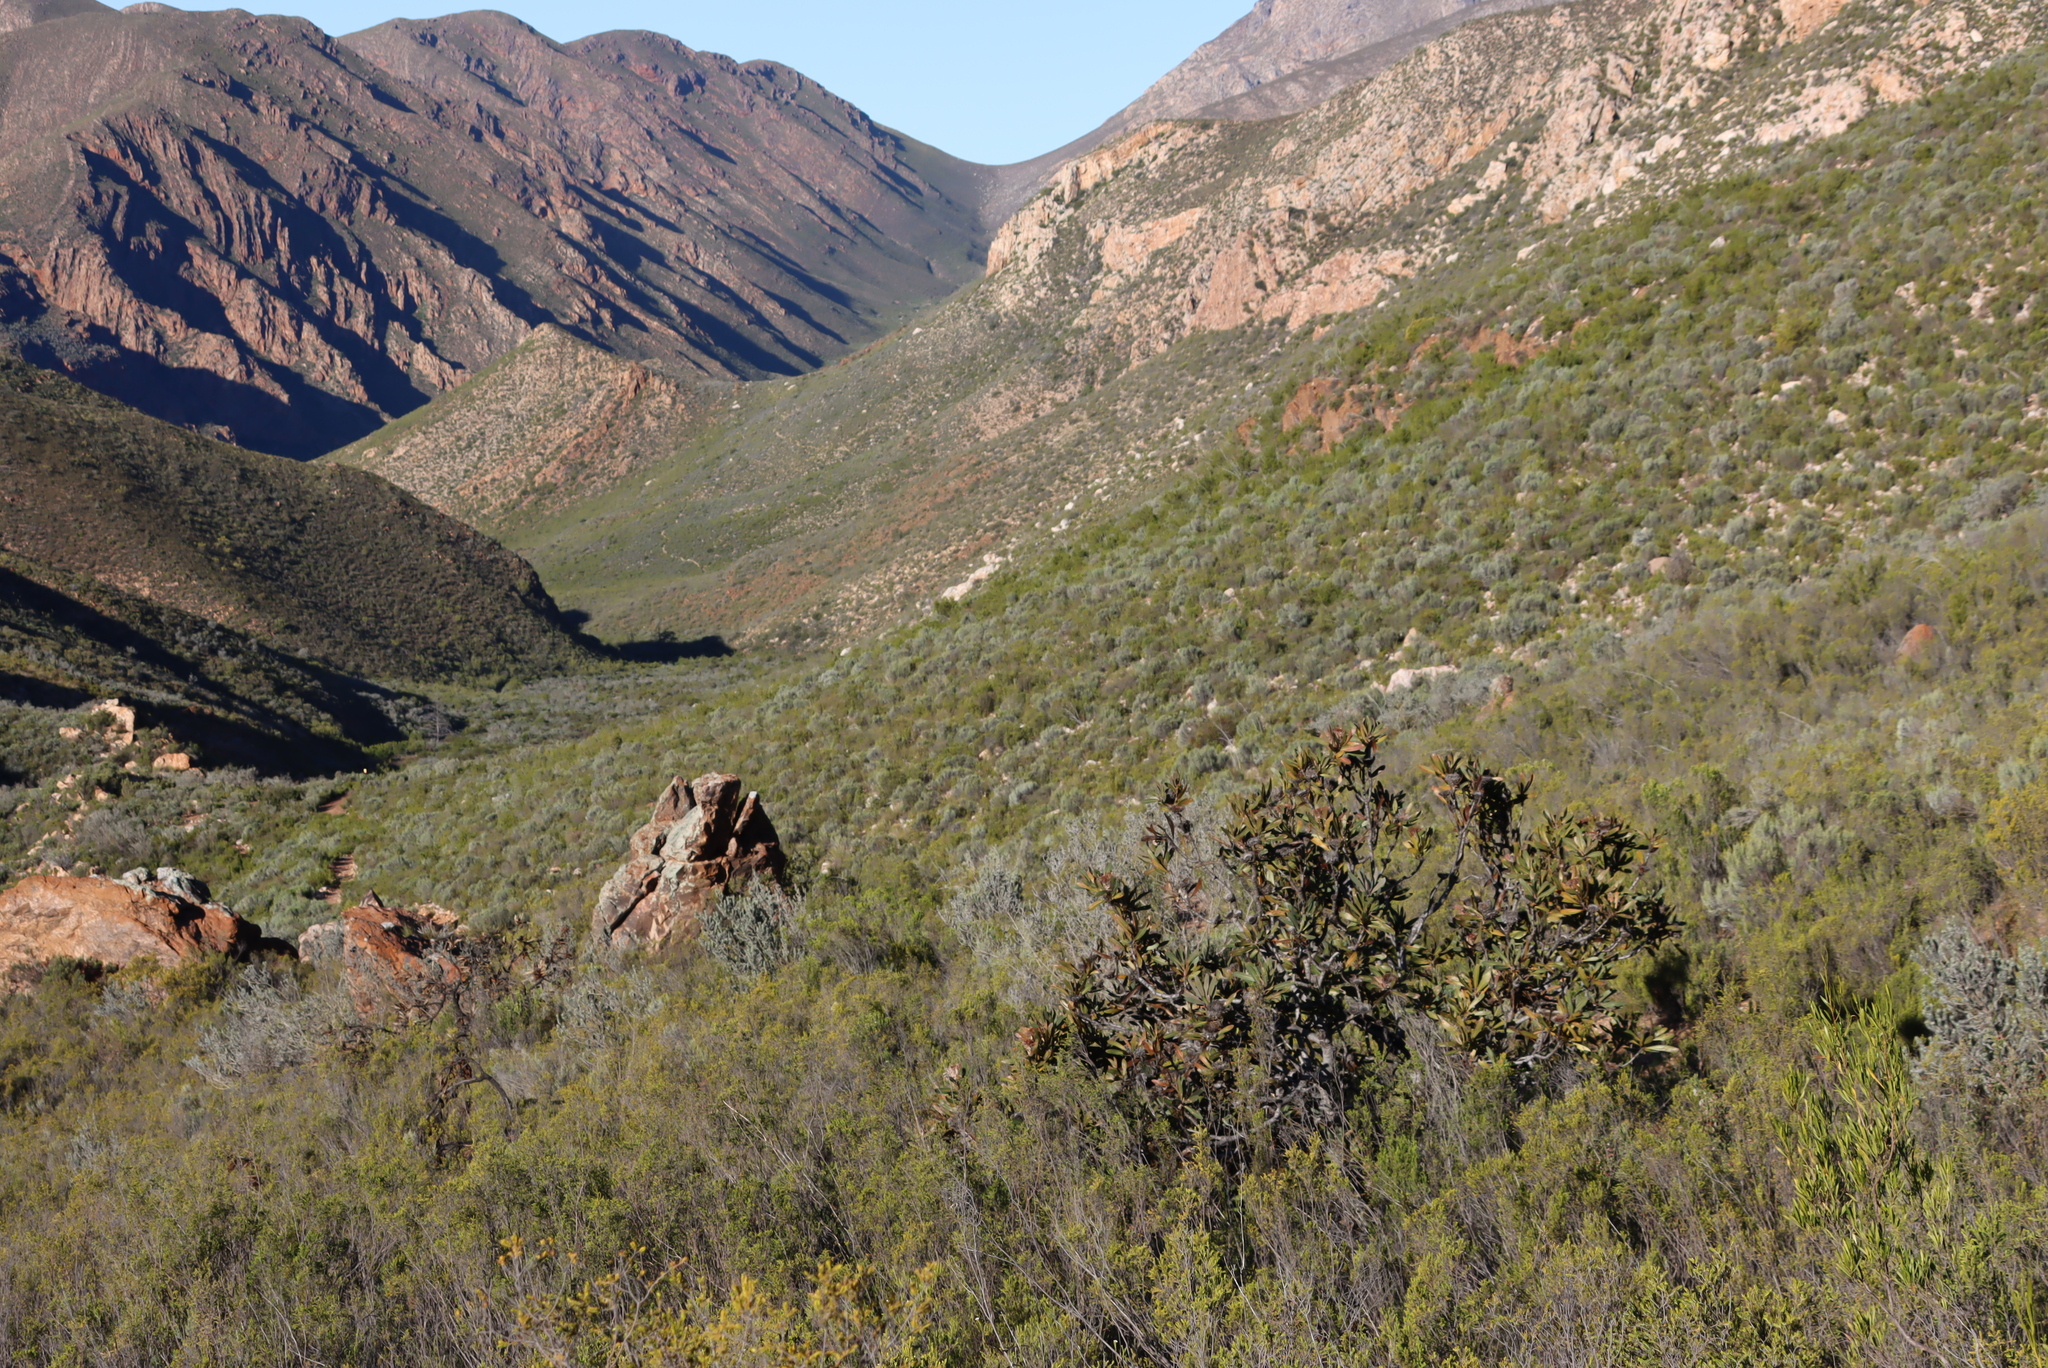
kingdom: Plantae
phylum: Tracheophyta
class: Magnoliopsida
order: Proteales
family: Proteaceae
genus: Protea
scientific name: Protea lorifolia
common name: Strap-leaved protea
